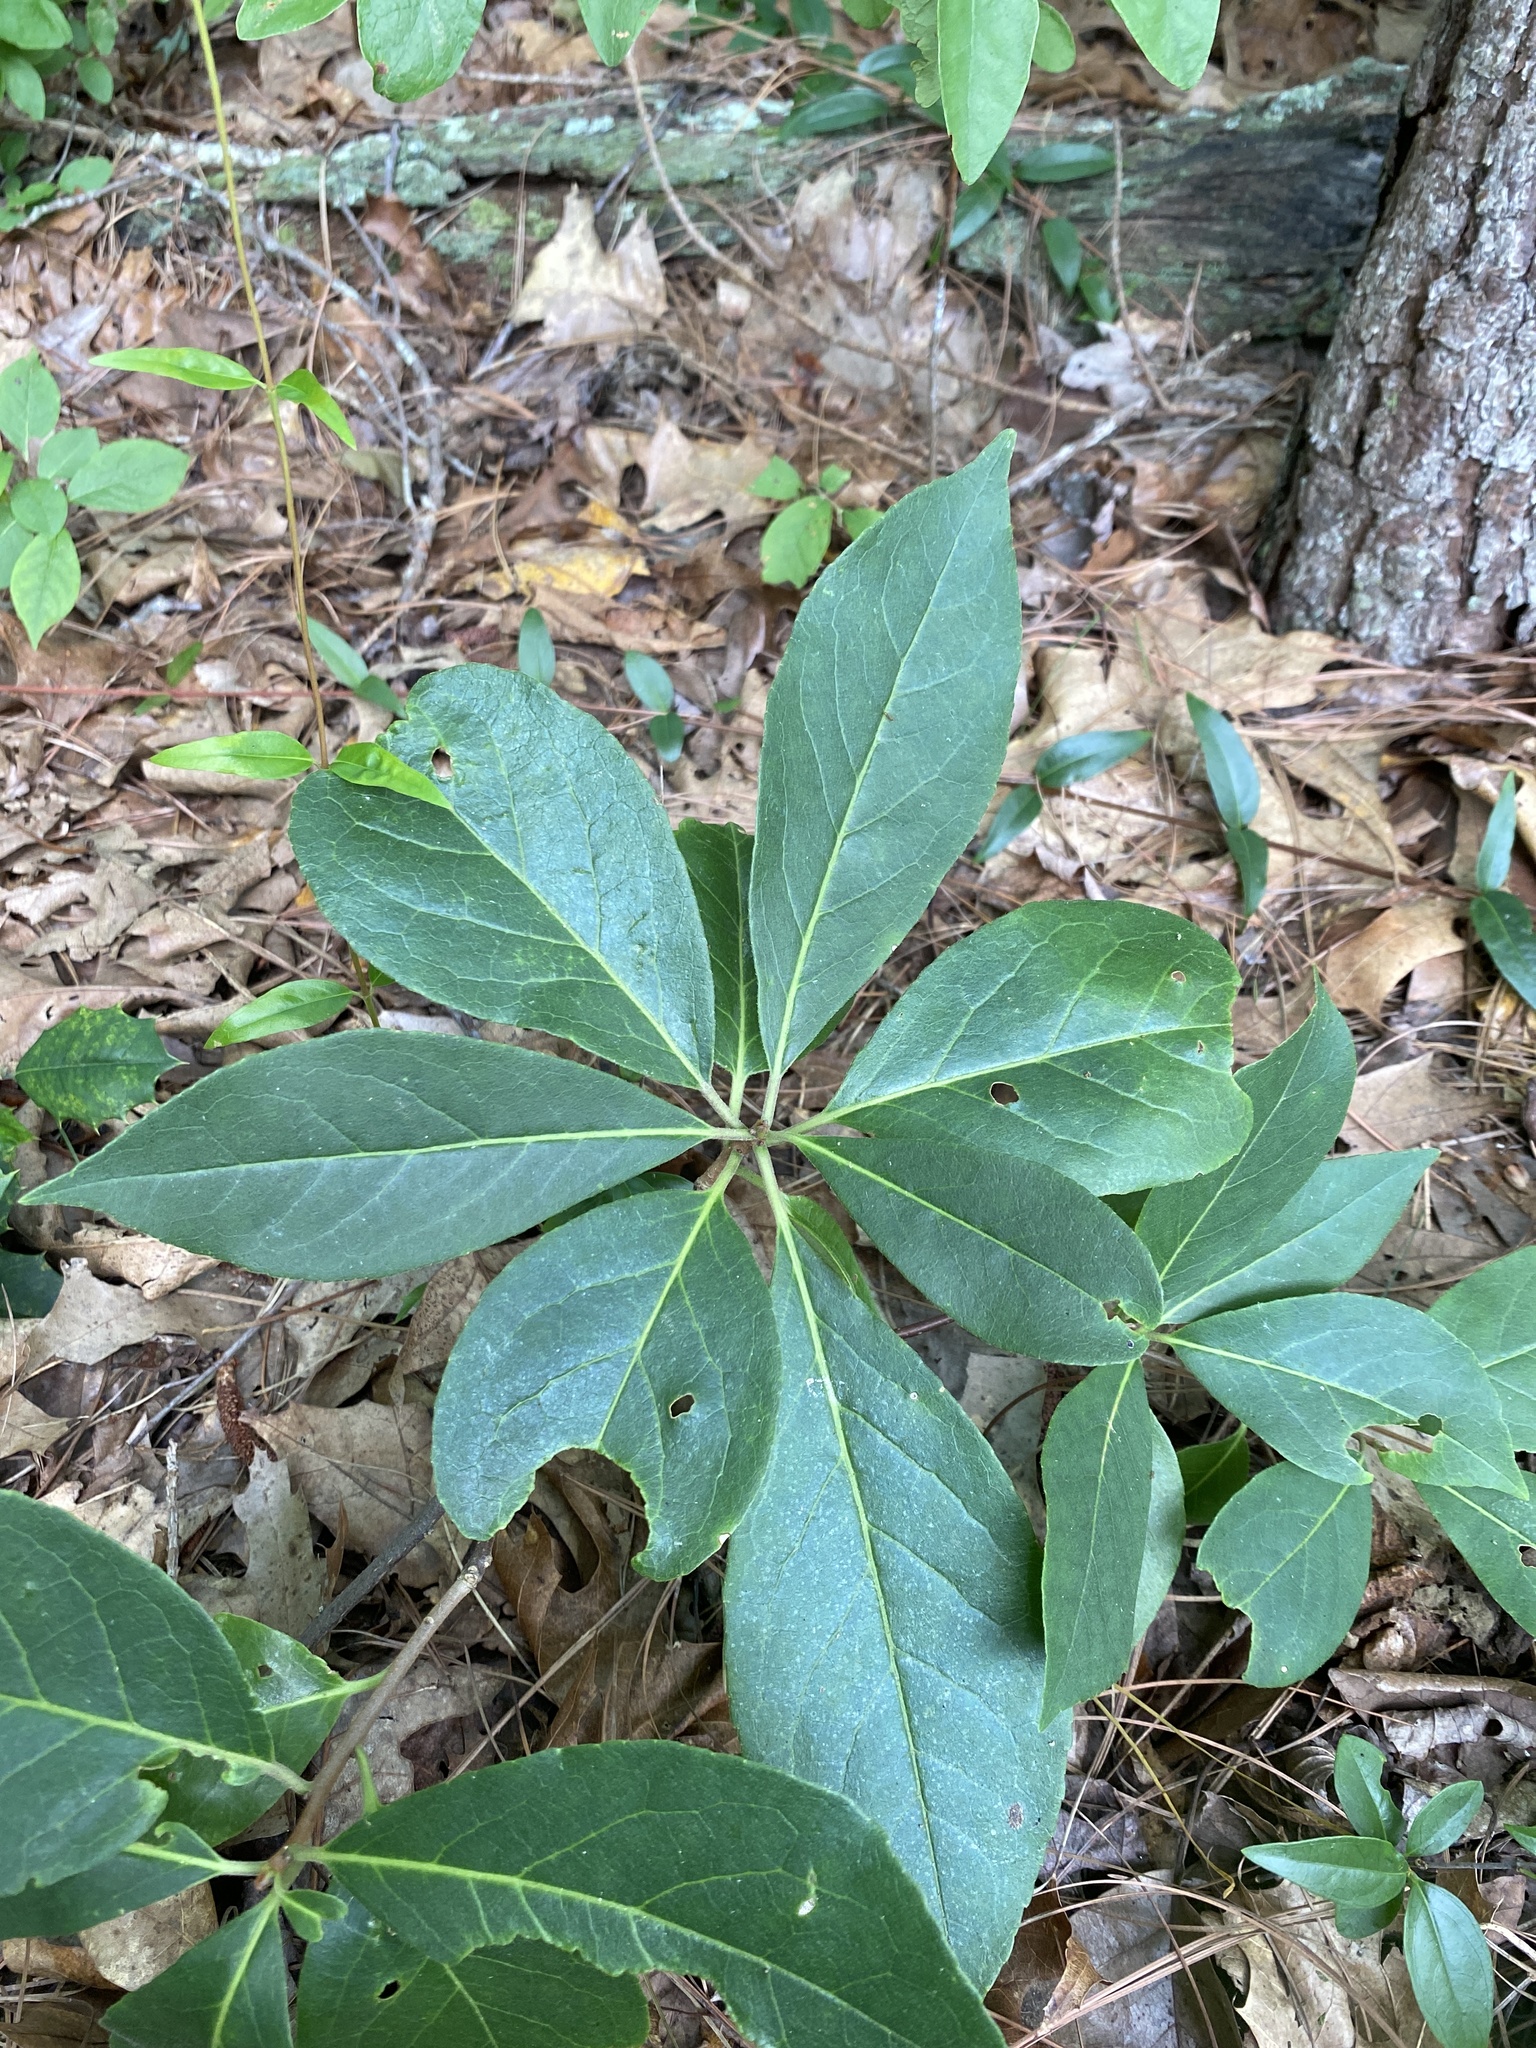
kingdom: Plantae
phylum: Tracheophyta
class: Magnoliopsida
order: Ericales
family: Symplocaceae
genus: Symplocos
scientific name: Symplocos tinctoria
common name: Horse-sugar
